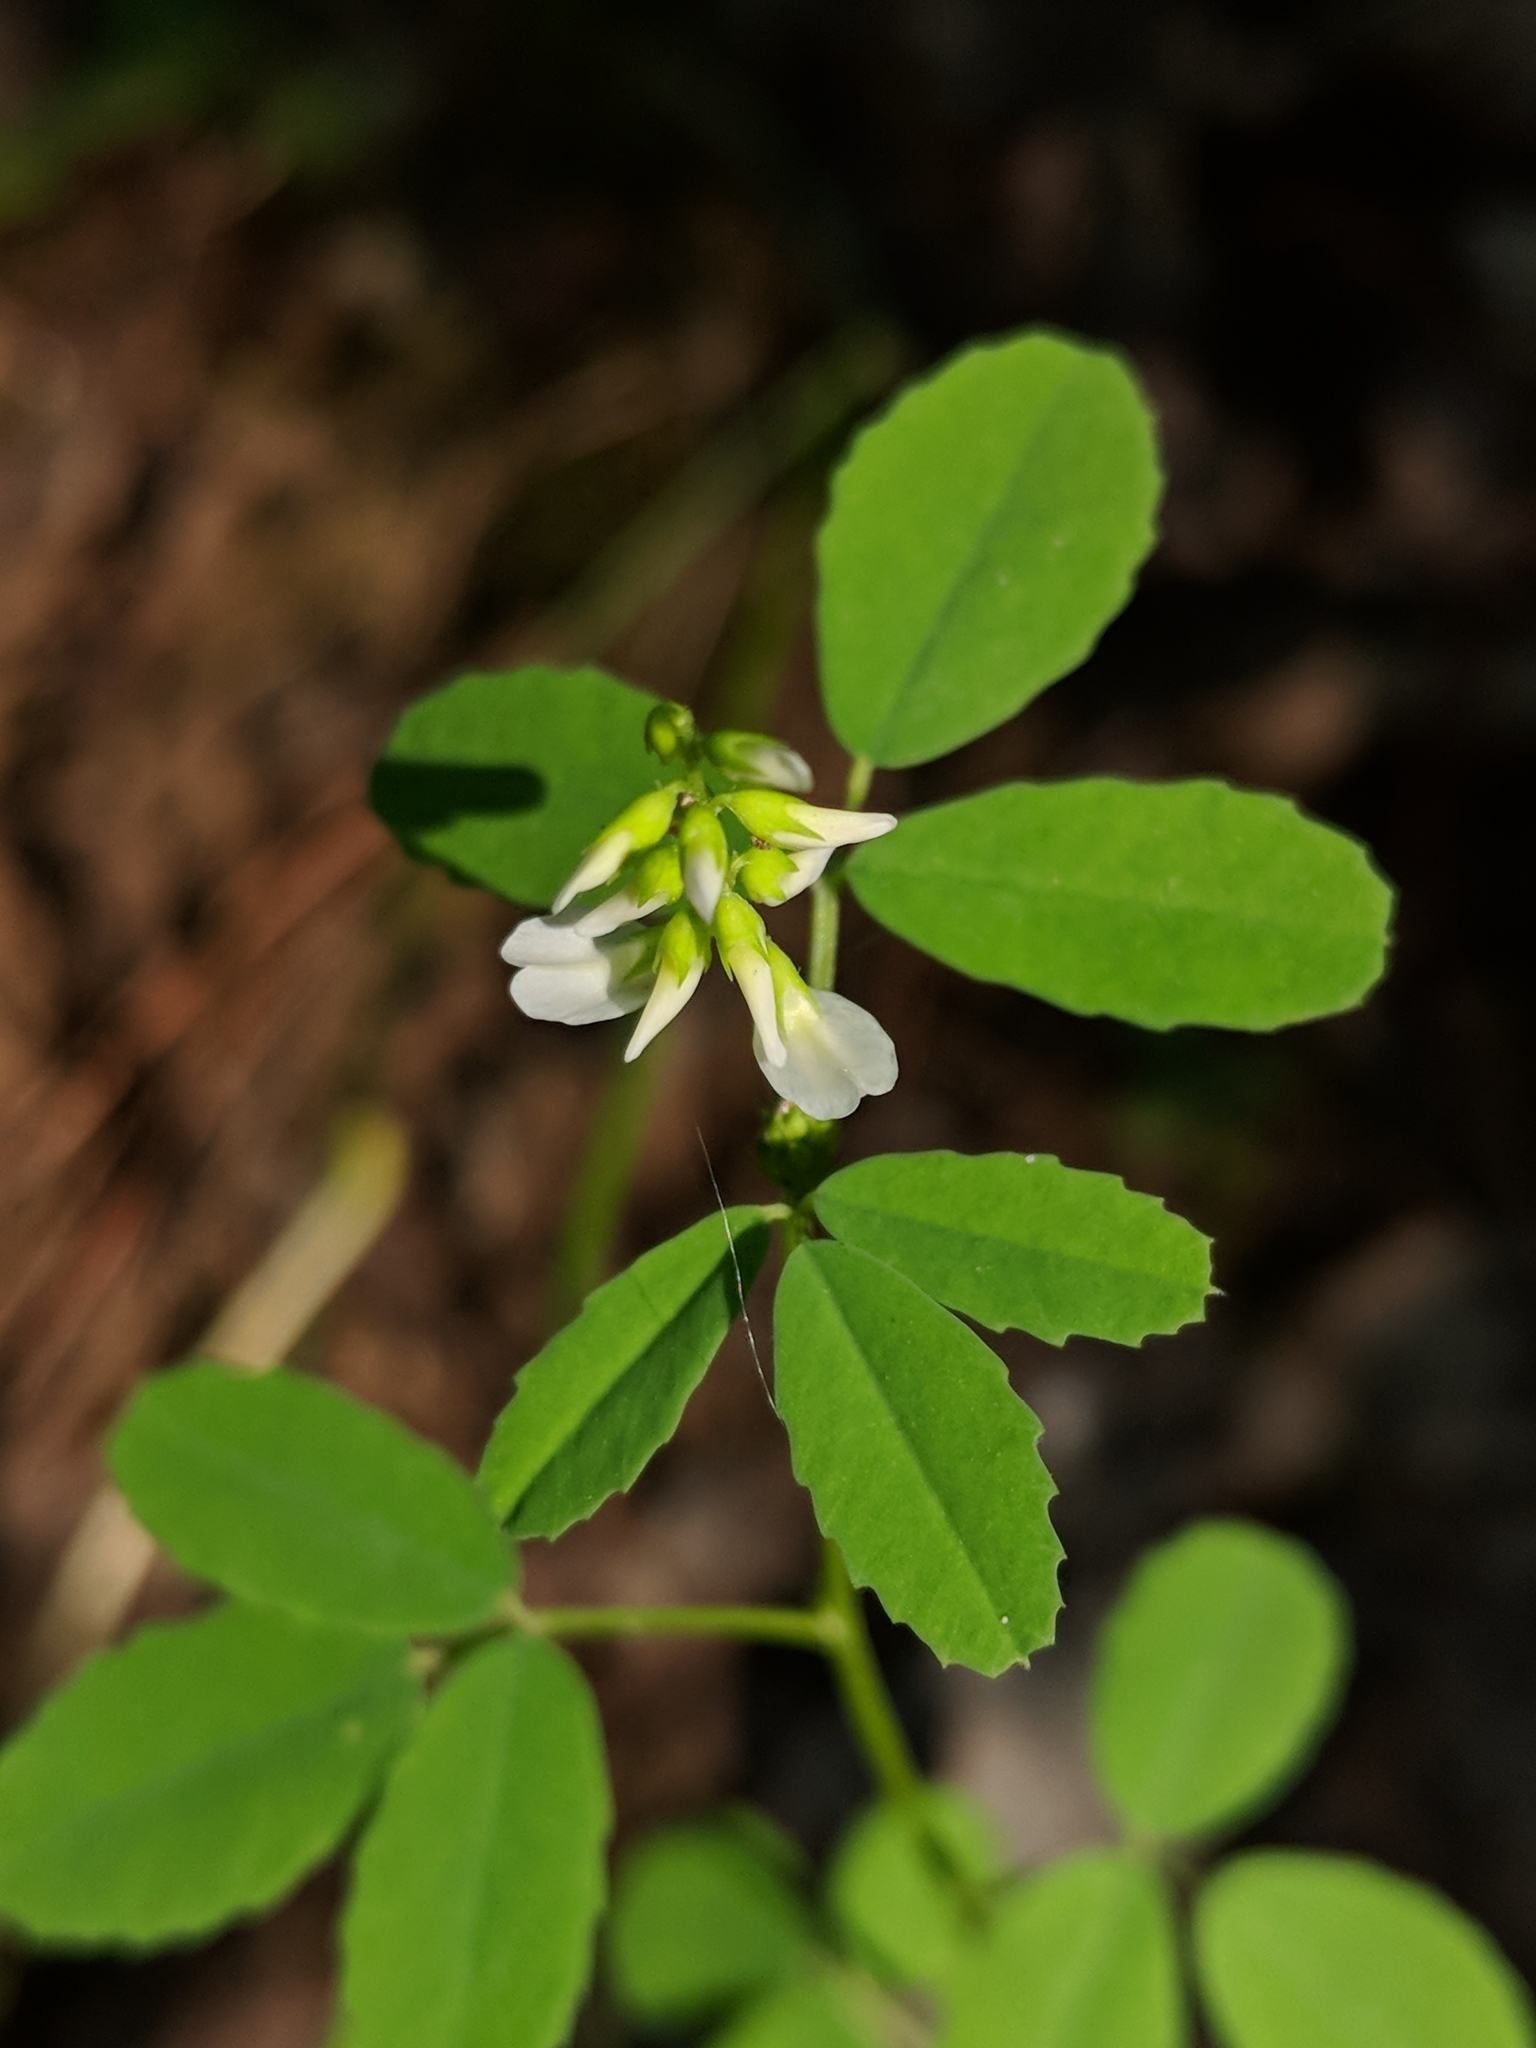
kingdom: Plantae
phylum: Tracheophyta
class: Magnoliopsida
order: Fabales
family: Fabaceae
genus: Melilotus
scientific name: Melilotus albus
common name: White melilot
